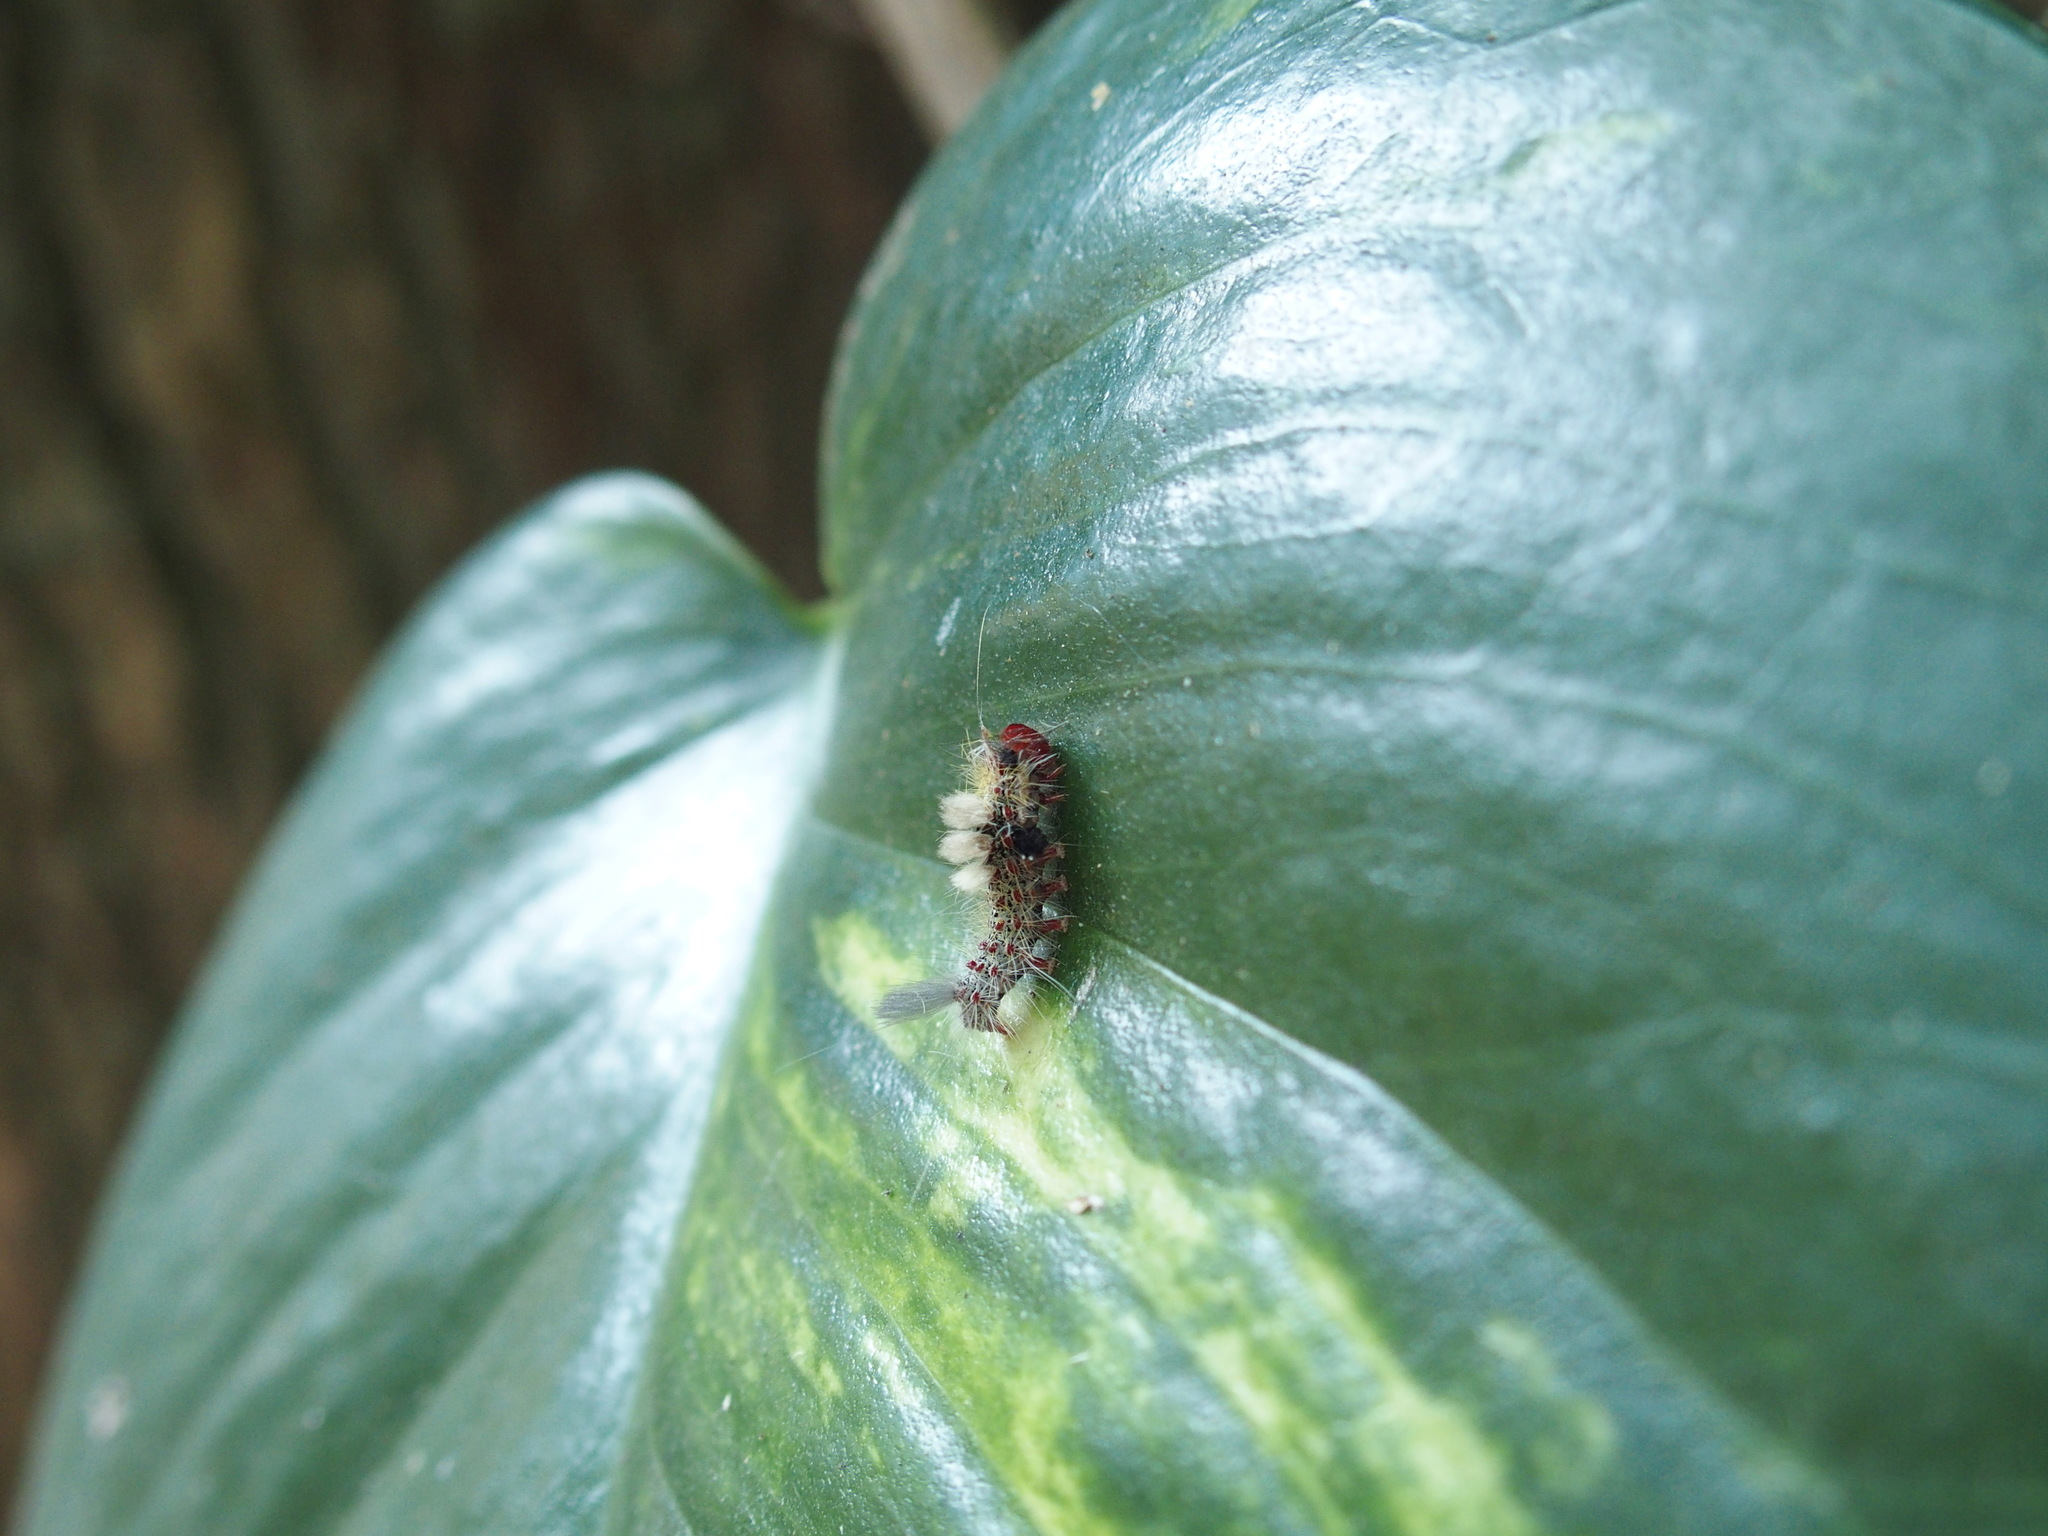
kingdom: Animalia
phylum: Arthropoda
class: Insecta
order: Lepidoptera
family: Erebidae
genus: Olene
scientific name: Olene mendosa
